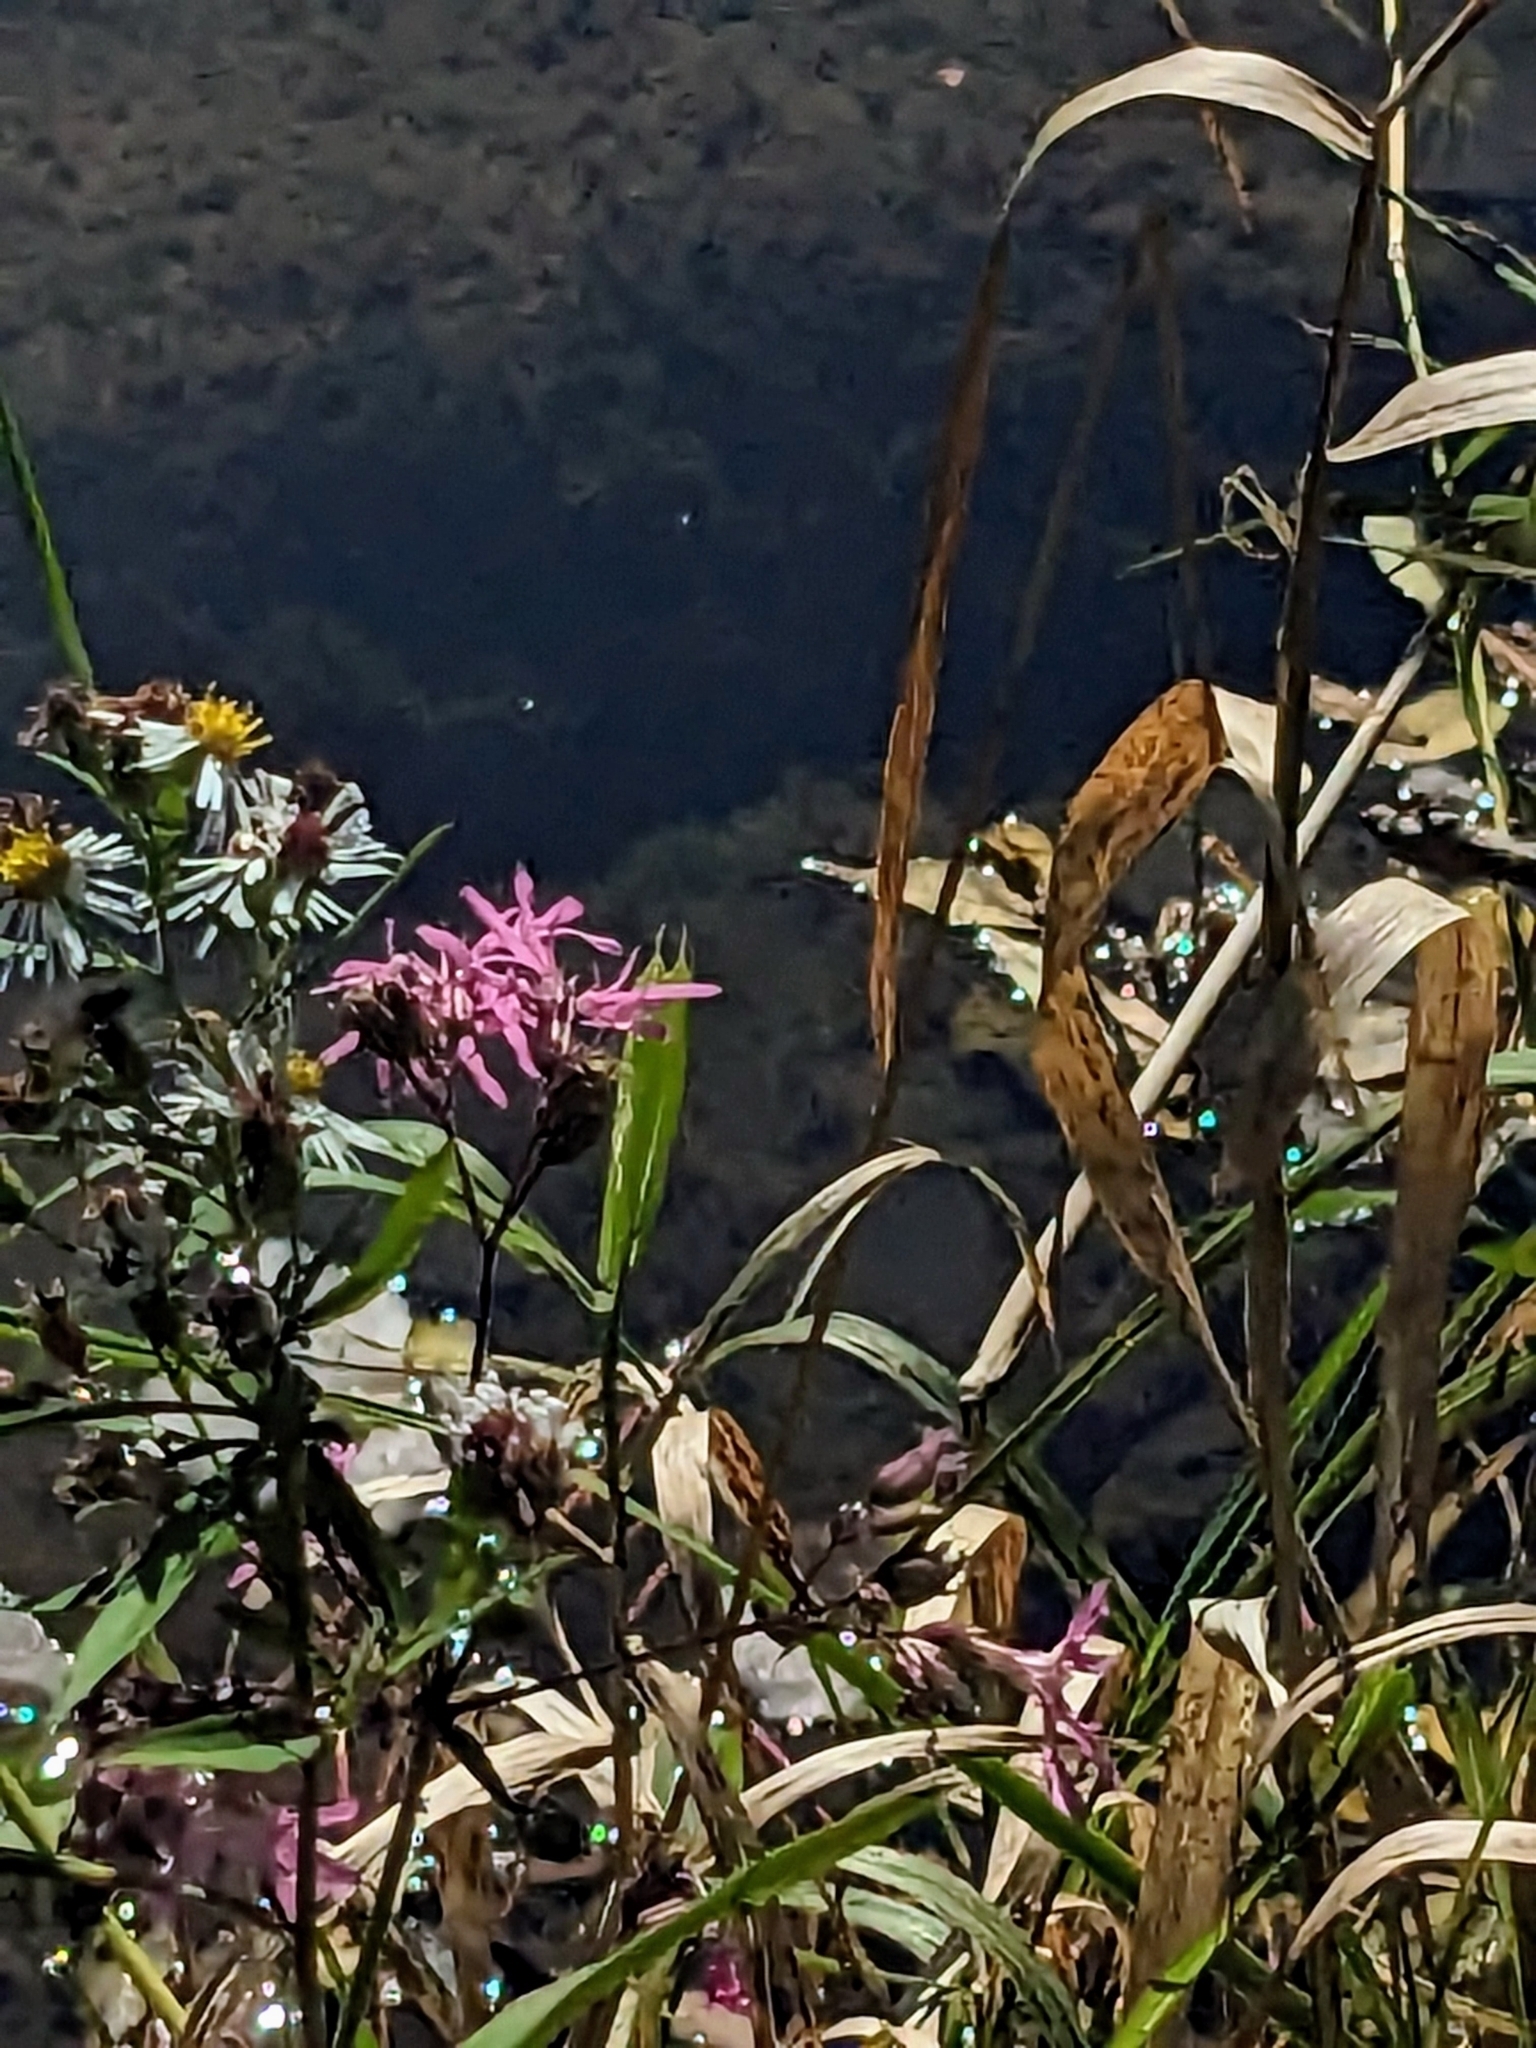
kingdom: Plantae
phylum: Tracheophyta
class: Magnoliopsida
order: Caryophyllales
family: Caryophyllaceae
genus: Silene
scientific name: Silene flos-cuculi
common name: Ragged-robin
